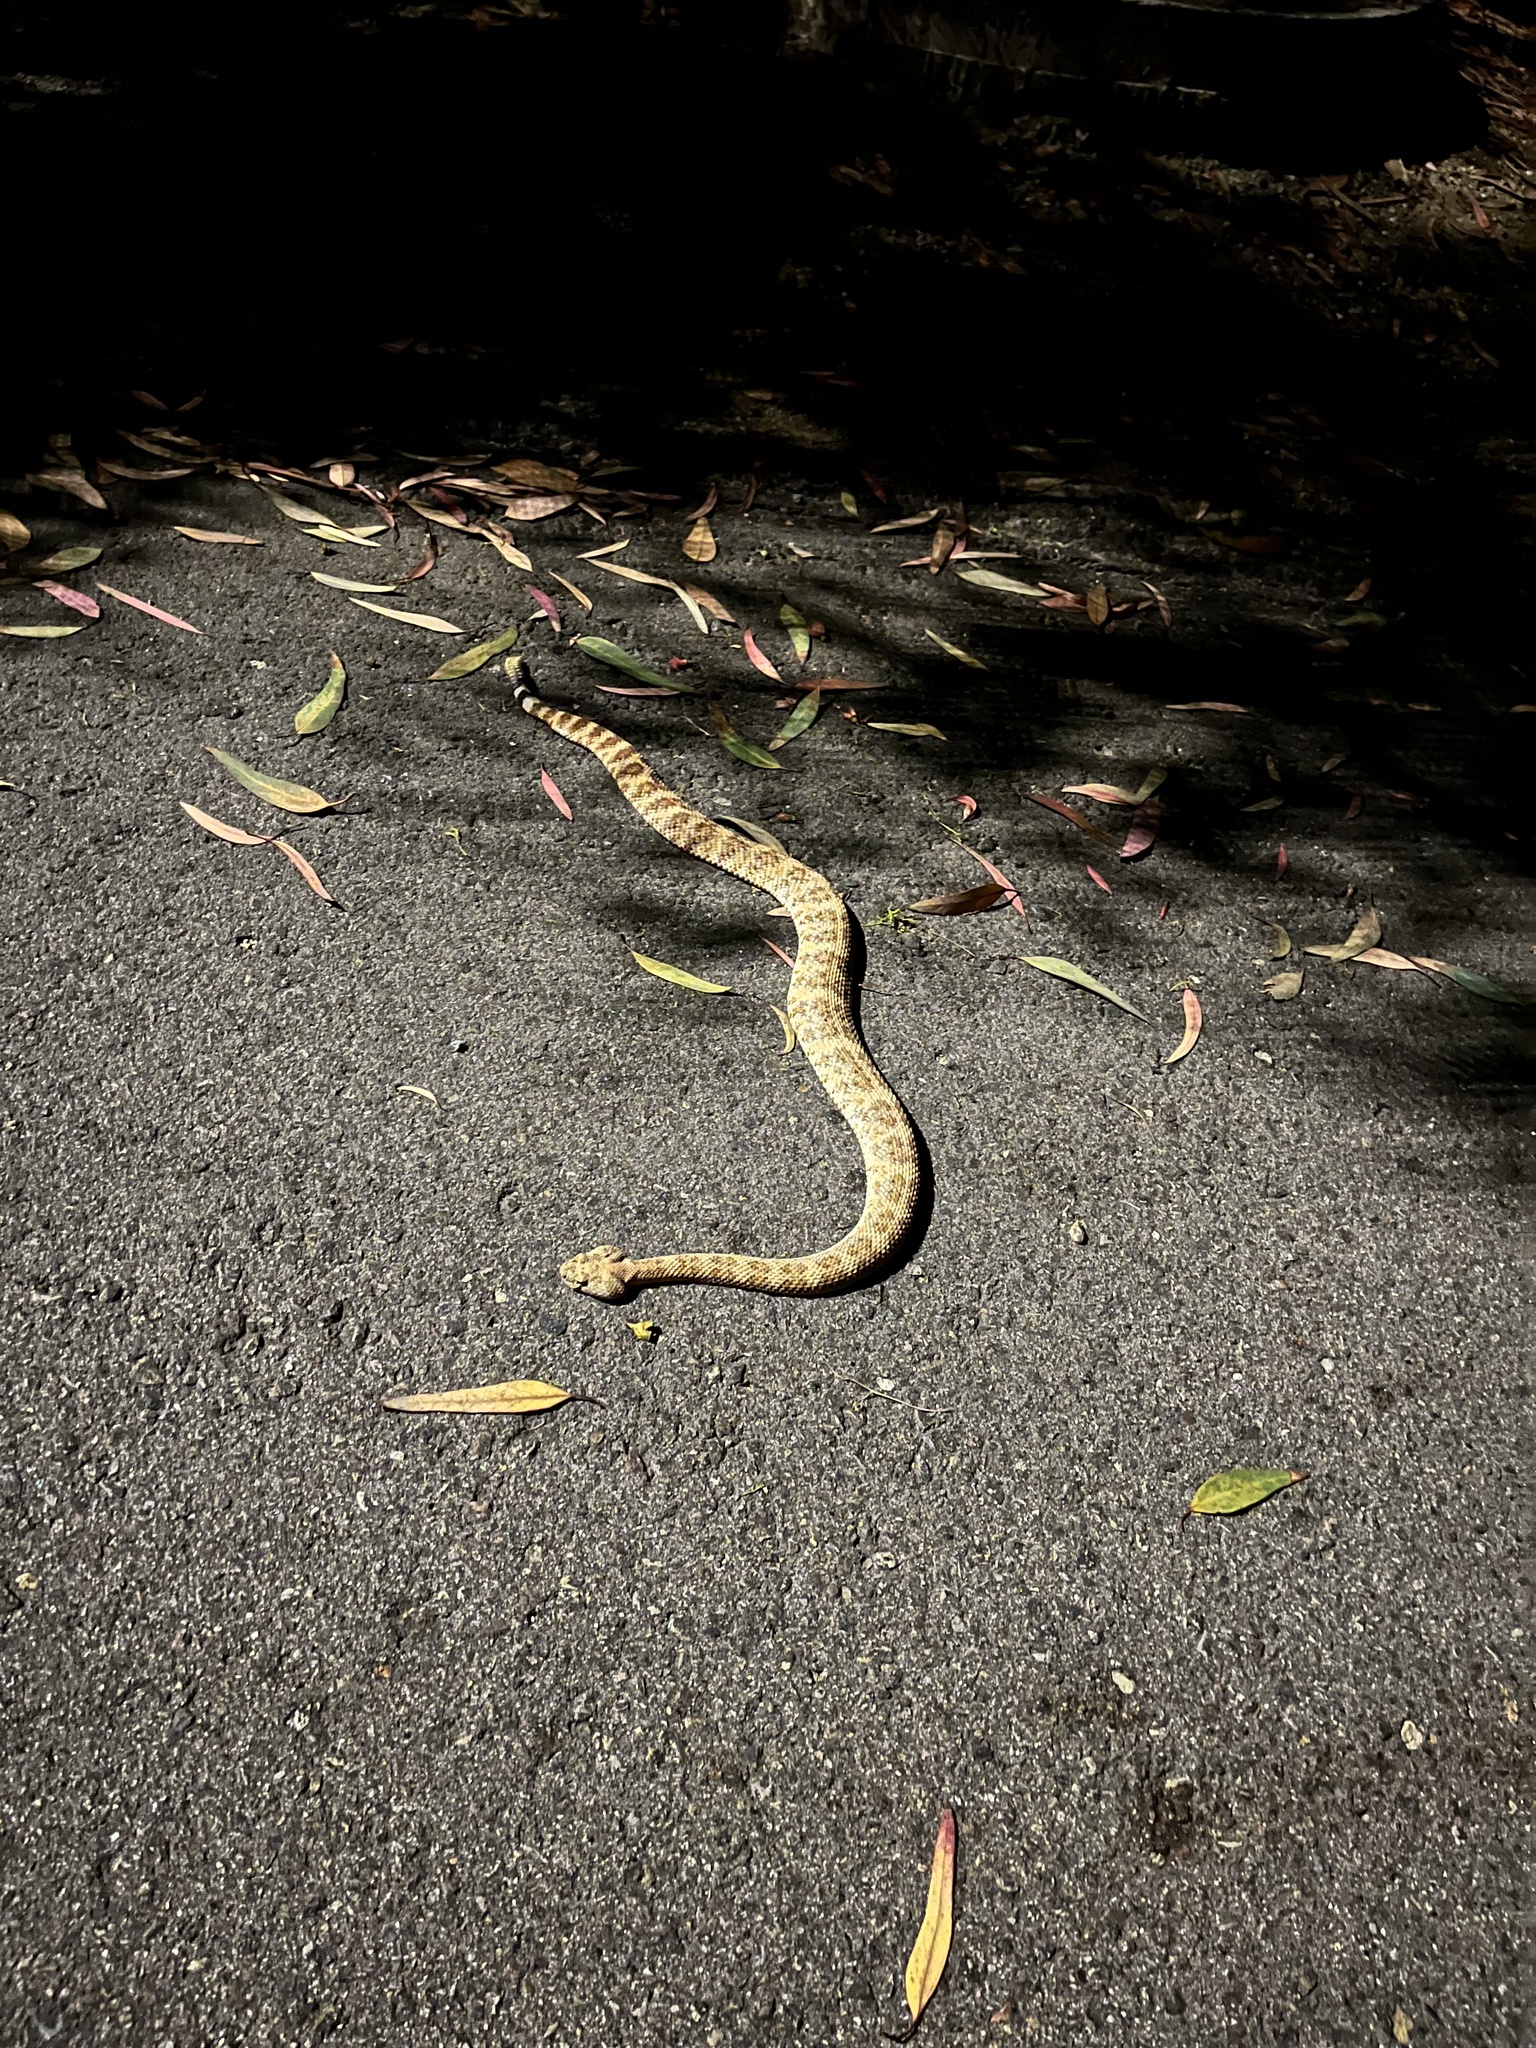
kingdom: Animalia
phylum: Chordata
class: Squamata
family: Viperidae
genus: Crotalus
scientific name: Crotalus pyrrhus
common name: Southwestern speckled rattlesnake
